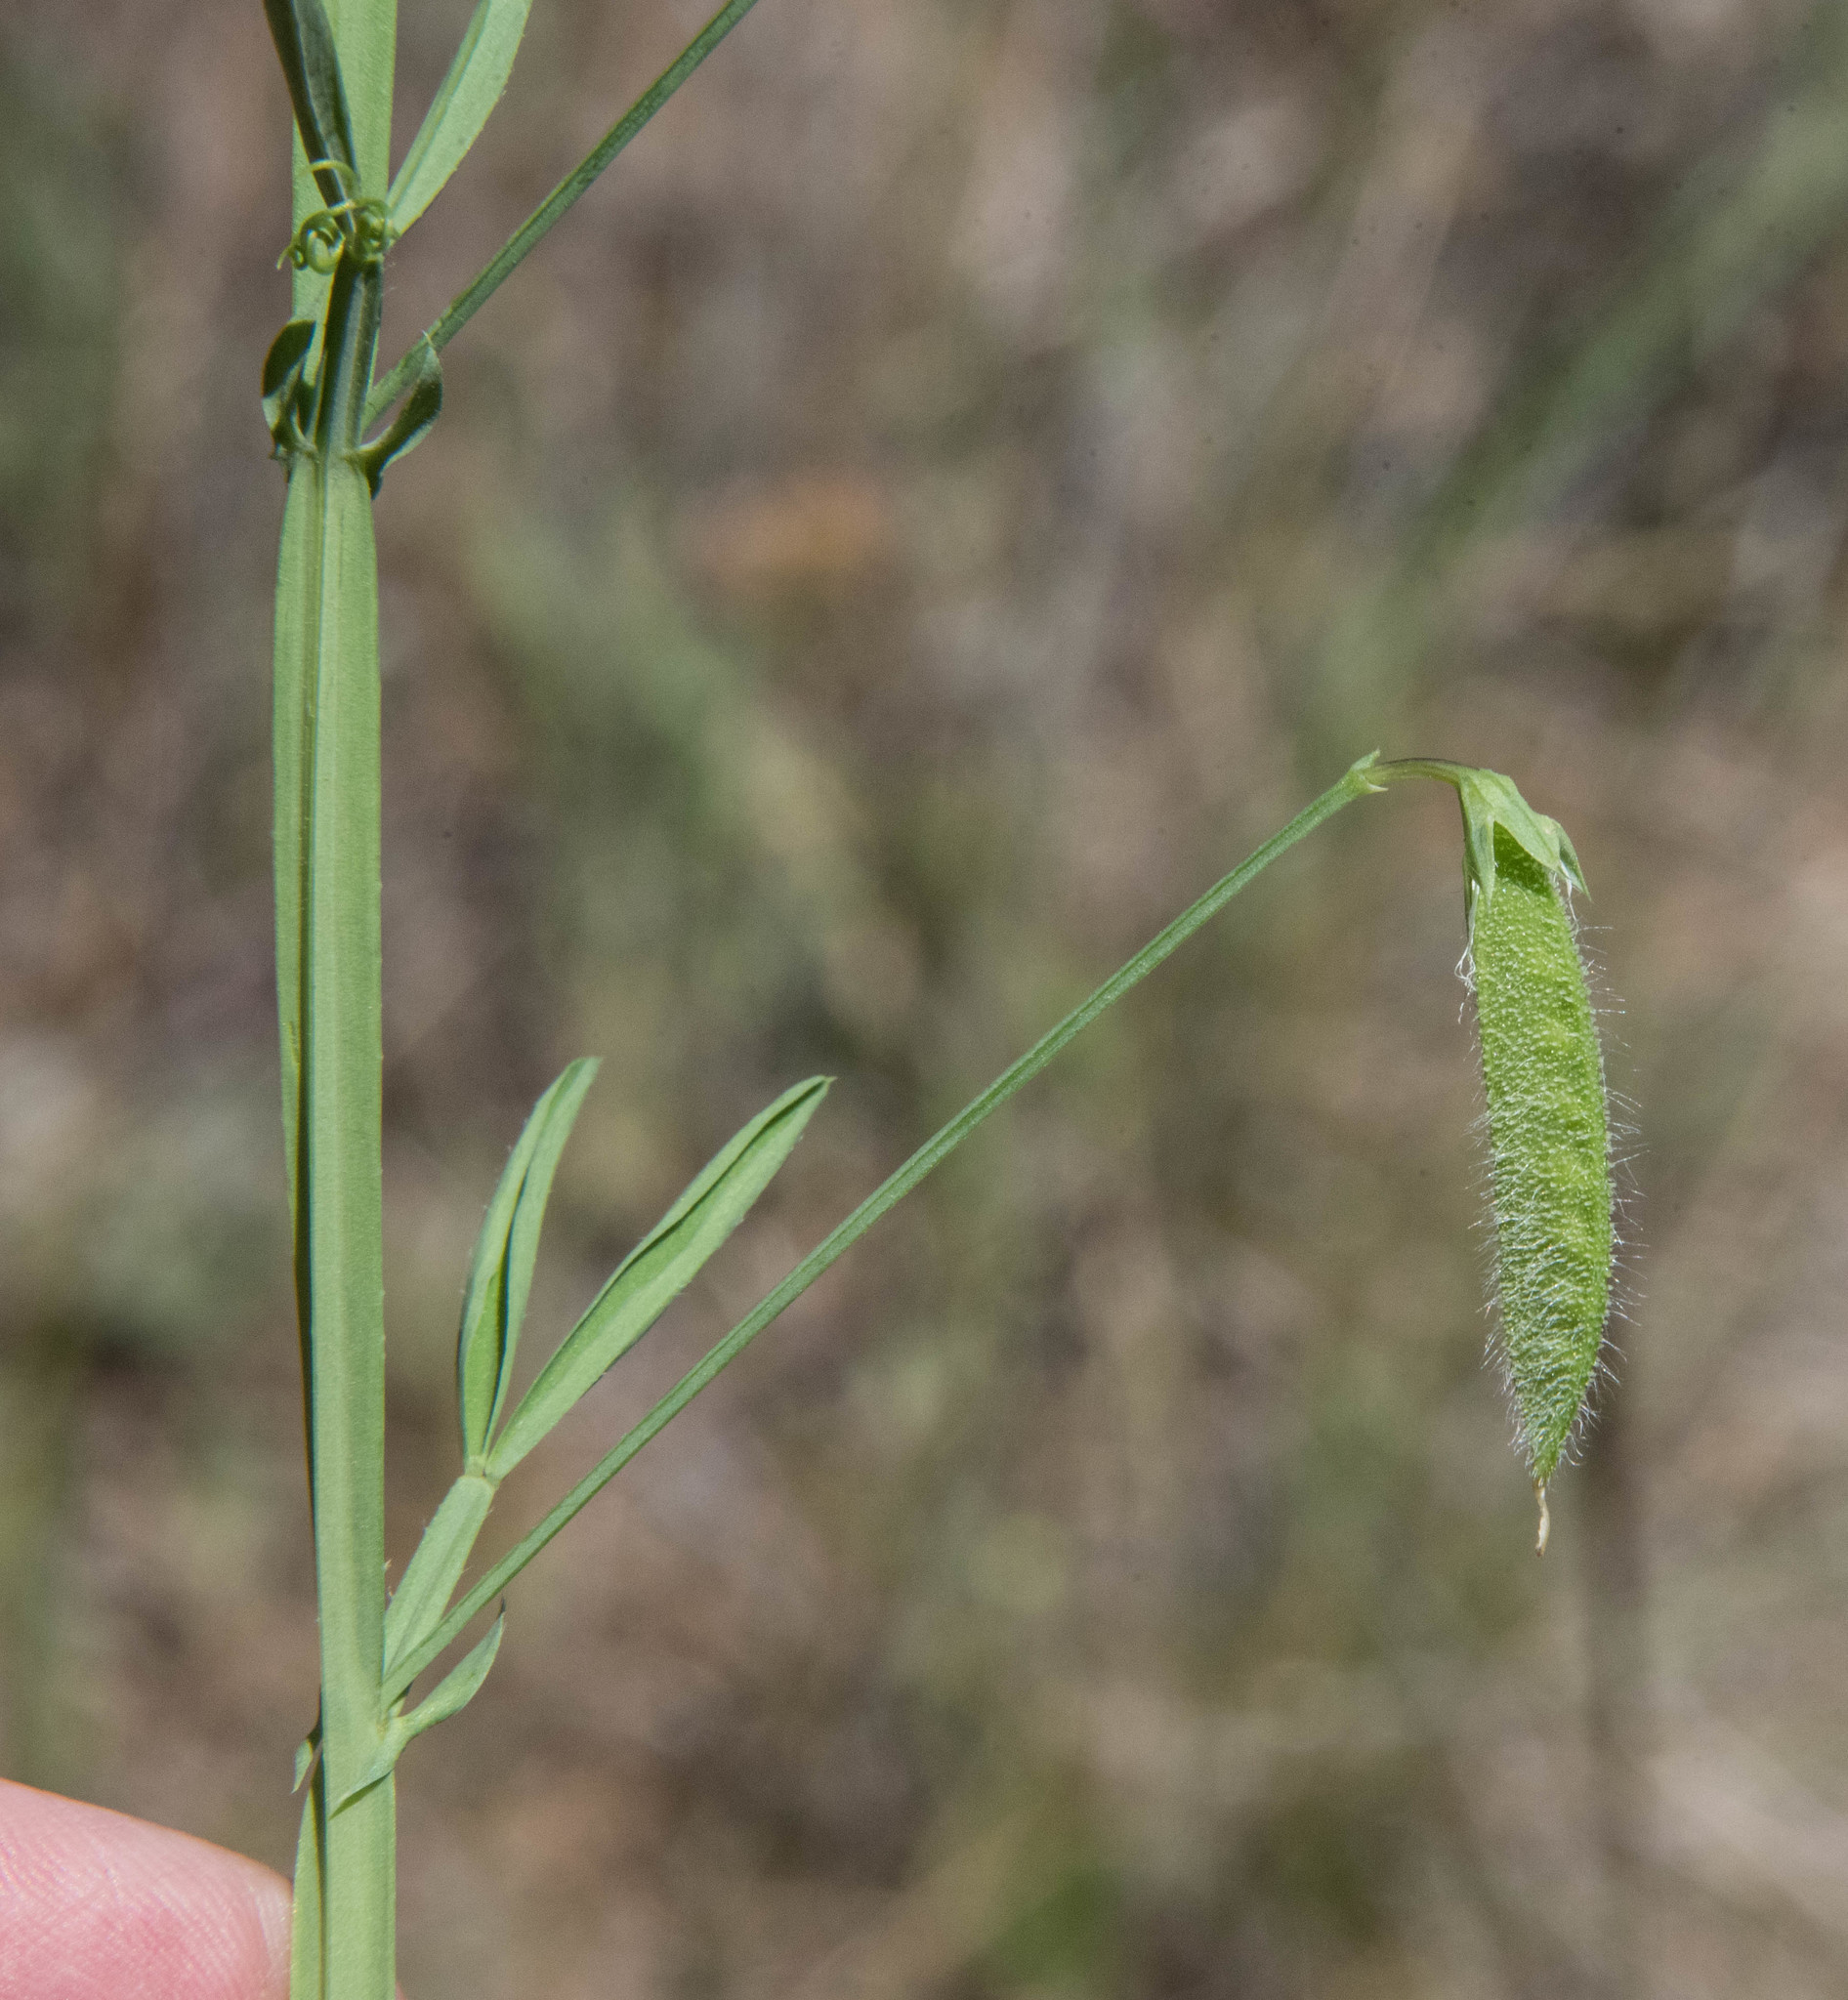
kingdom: Plantae
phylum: Tracheophyta
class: Magnoliopsida
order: Fabales
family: Fabaceae
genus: Lathyrus
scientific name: Lathyrus hirsutus
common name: Hairy vetchling
